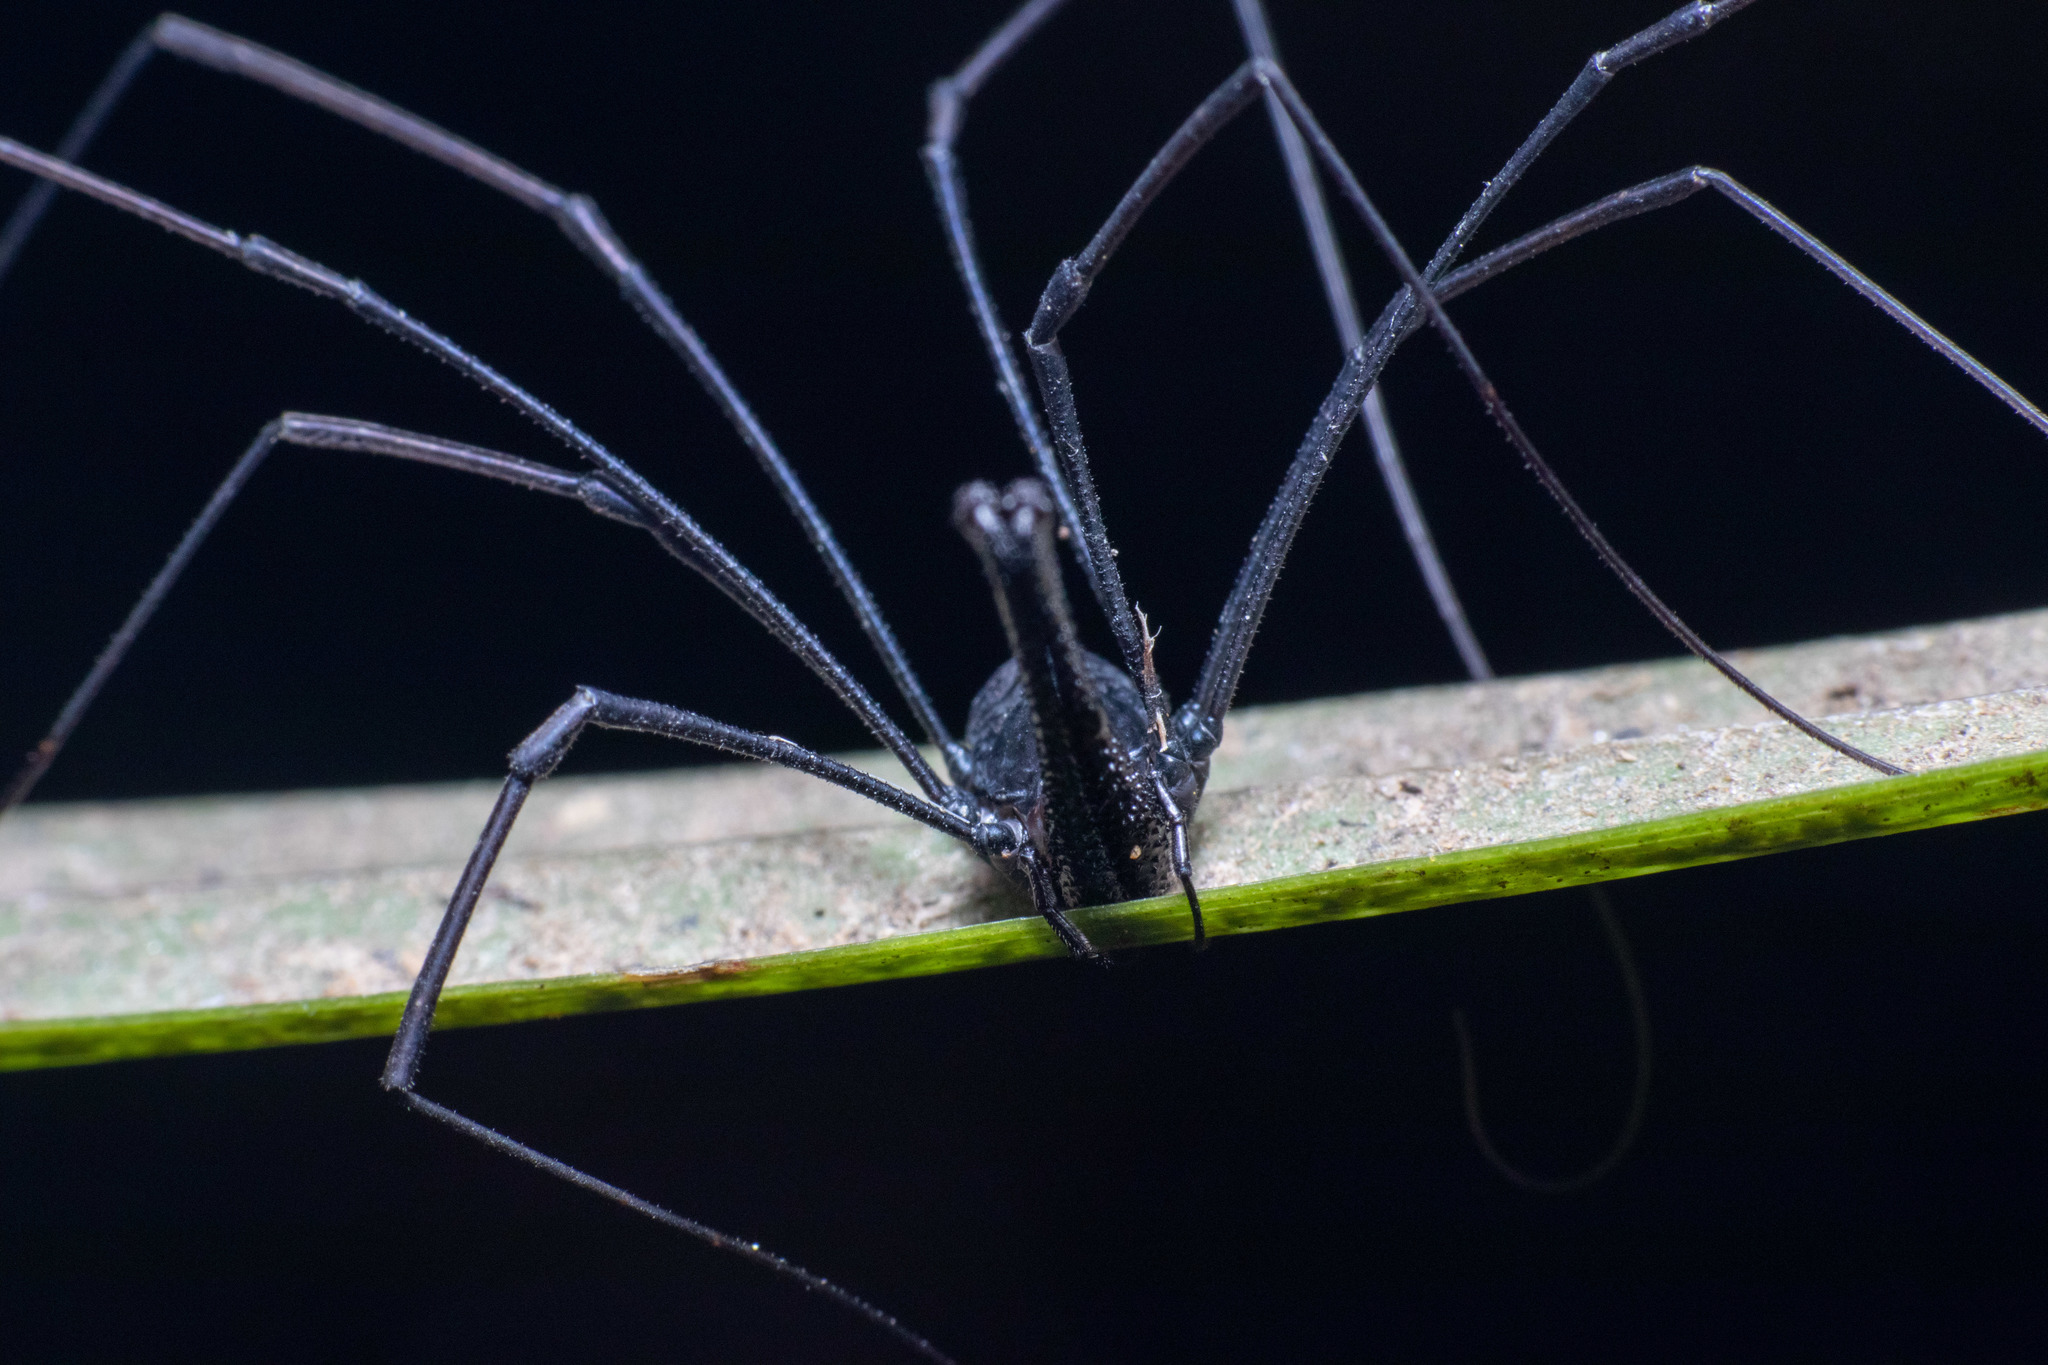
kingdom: Animalia
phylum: Arthropoda
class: Arachnida
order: Opiliones
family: Neopilionidae
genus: Pantopsalis
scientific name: Pantopsalis albipalpis
